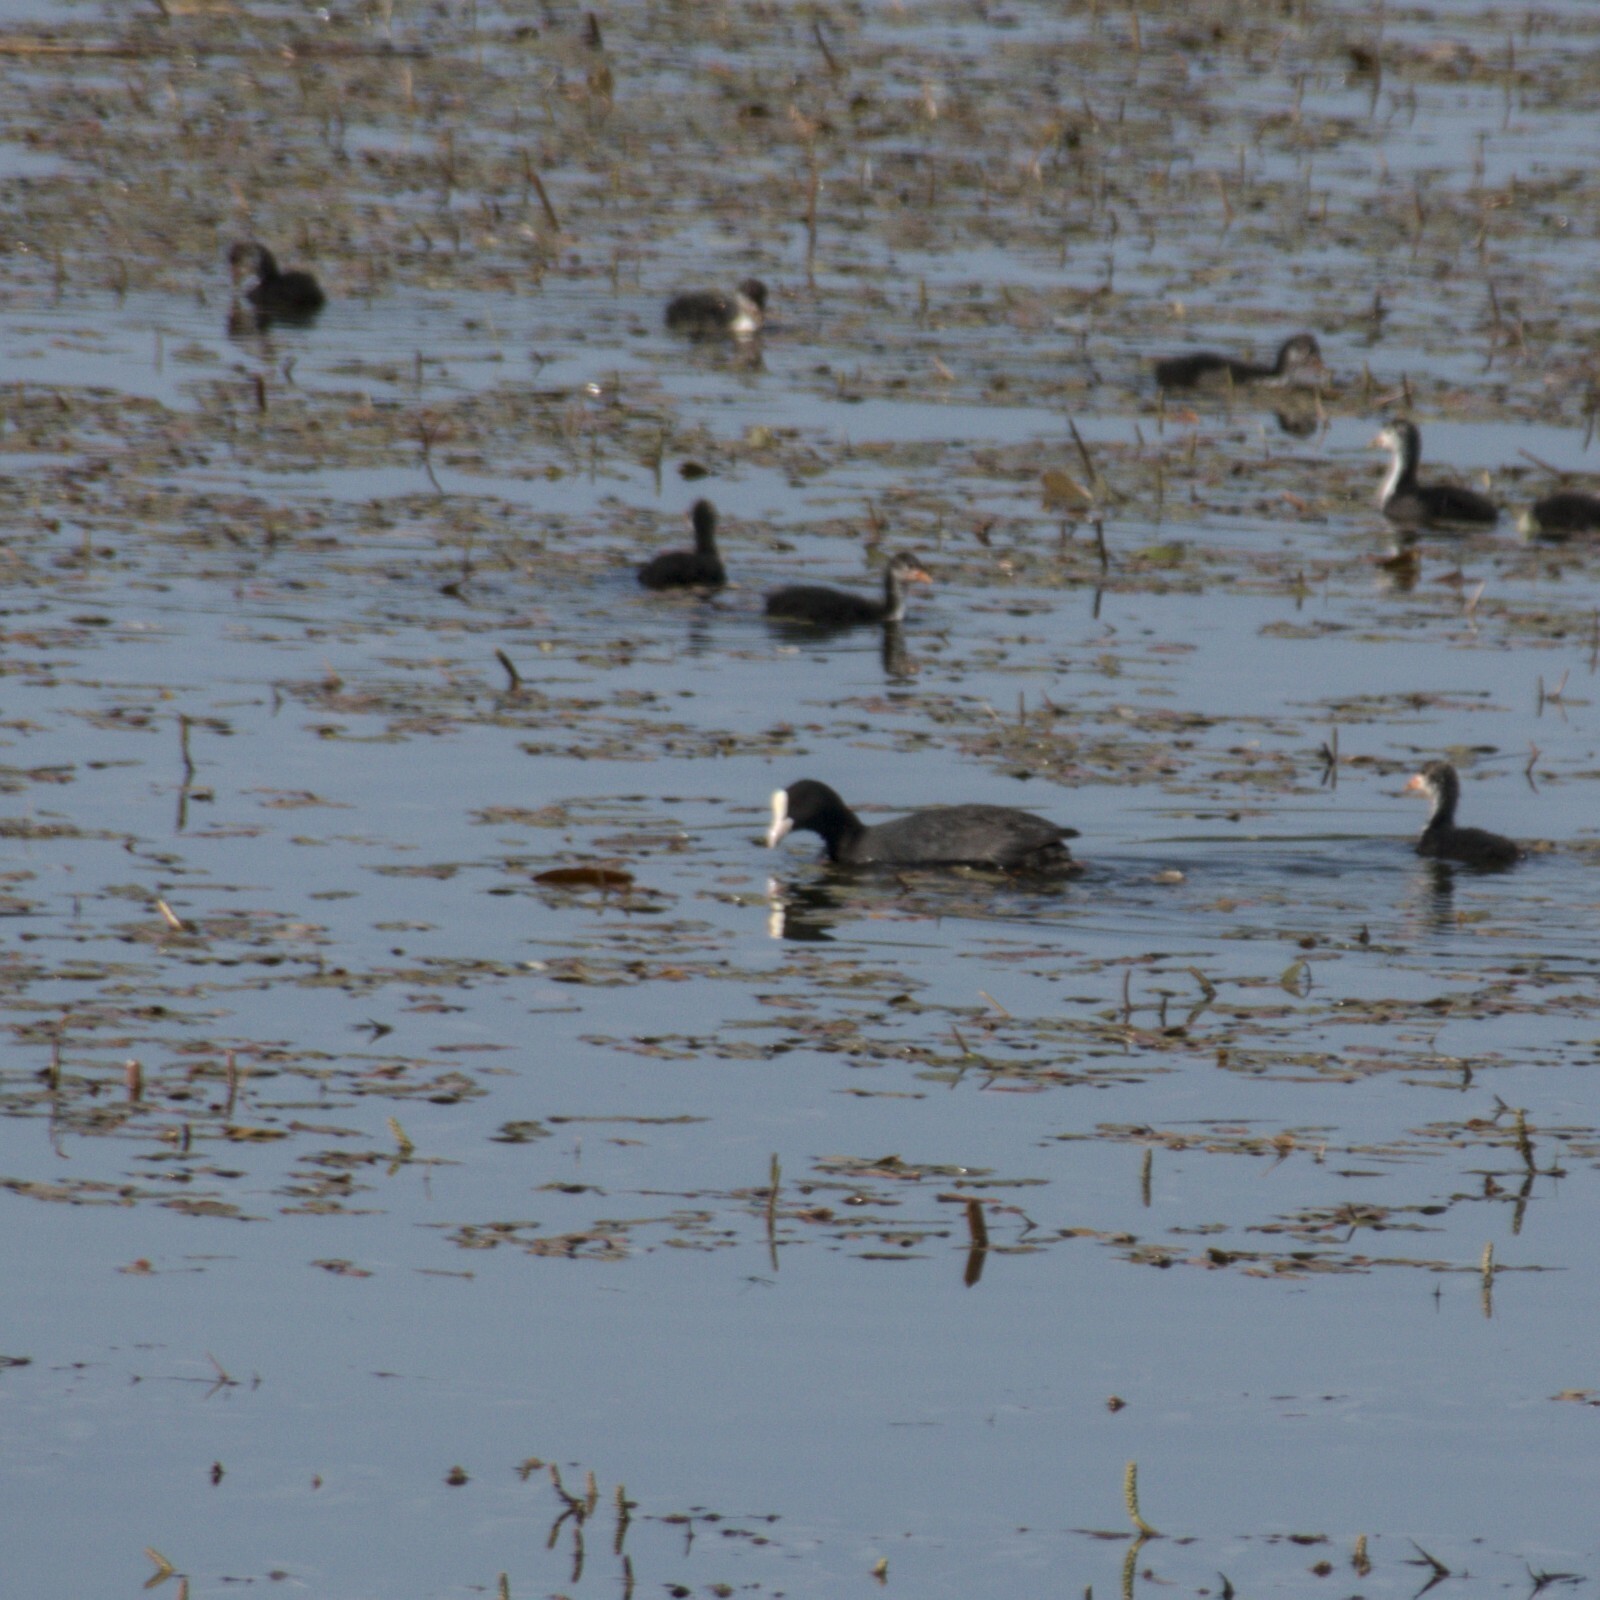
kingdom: Animalia
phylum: Chordata
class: Aves
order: Gruiformes
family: Rallidae
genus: Fulica
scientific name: Fulica atra
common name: Eurasian coot
